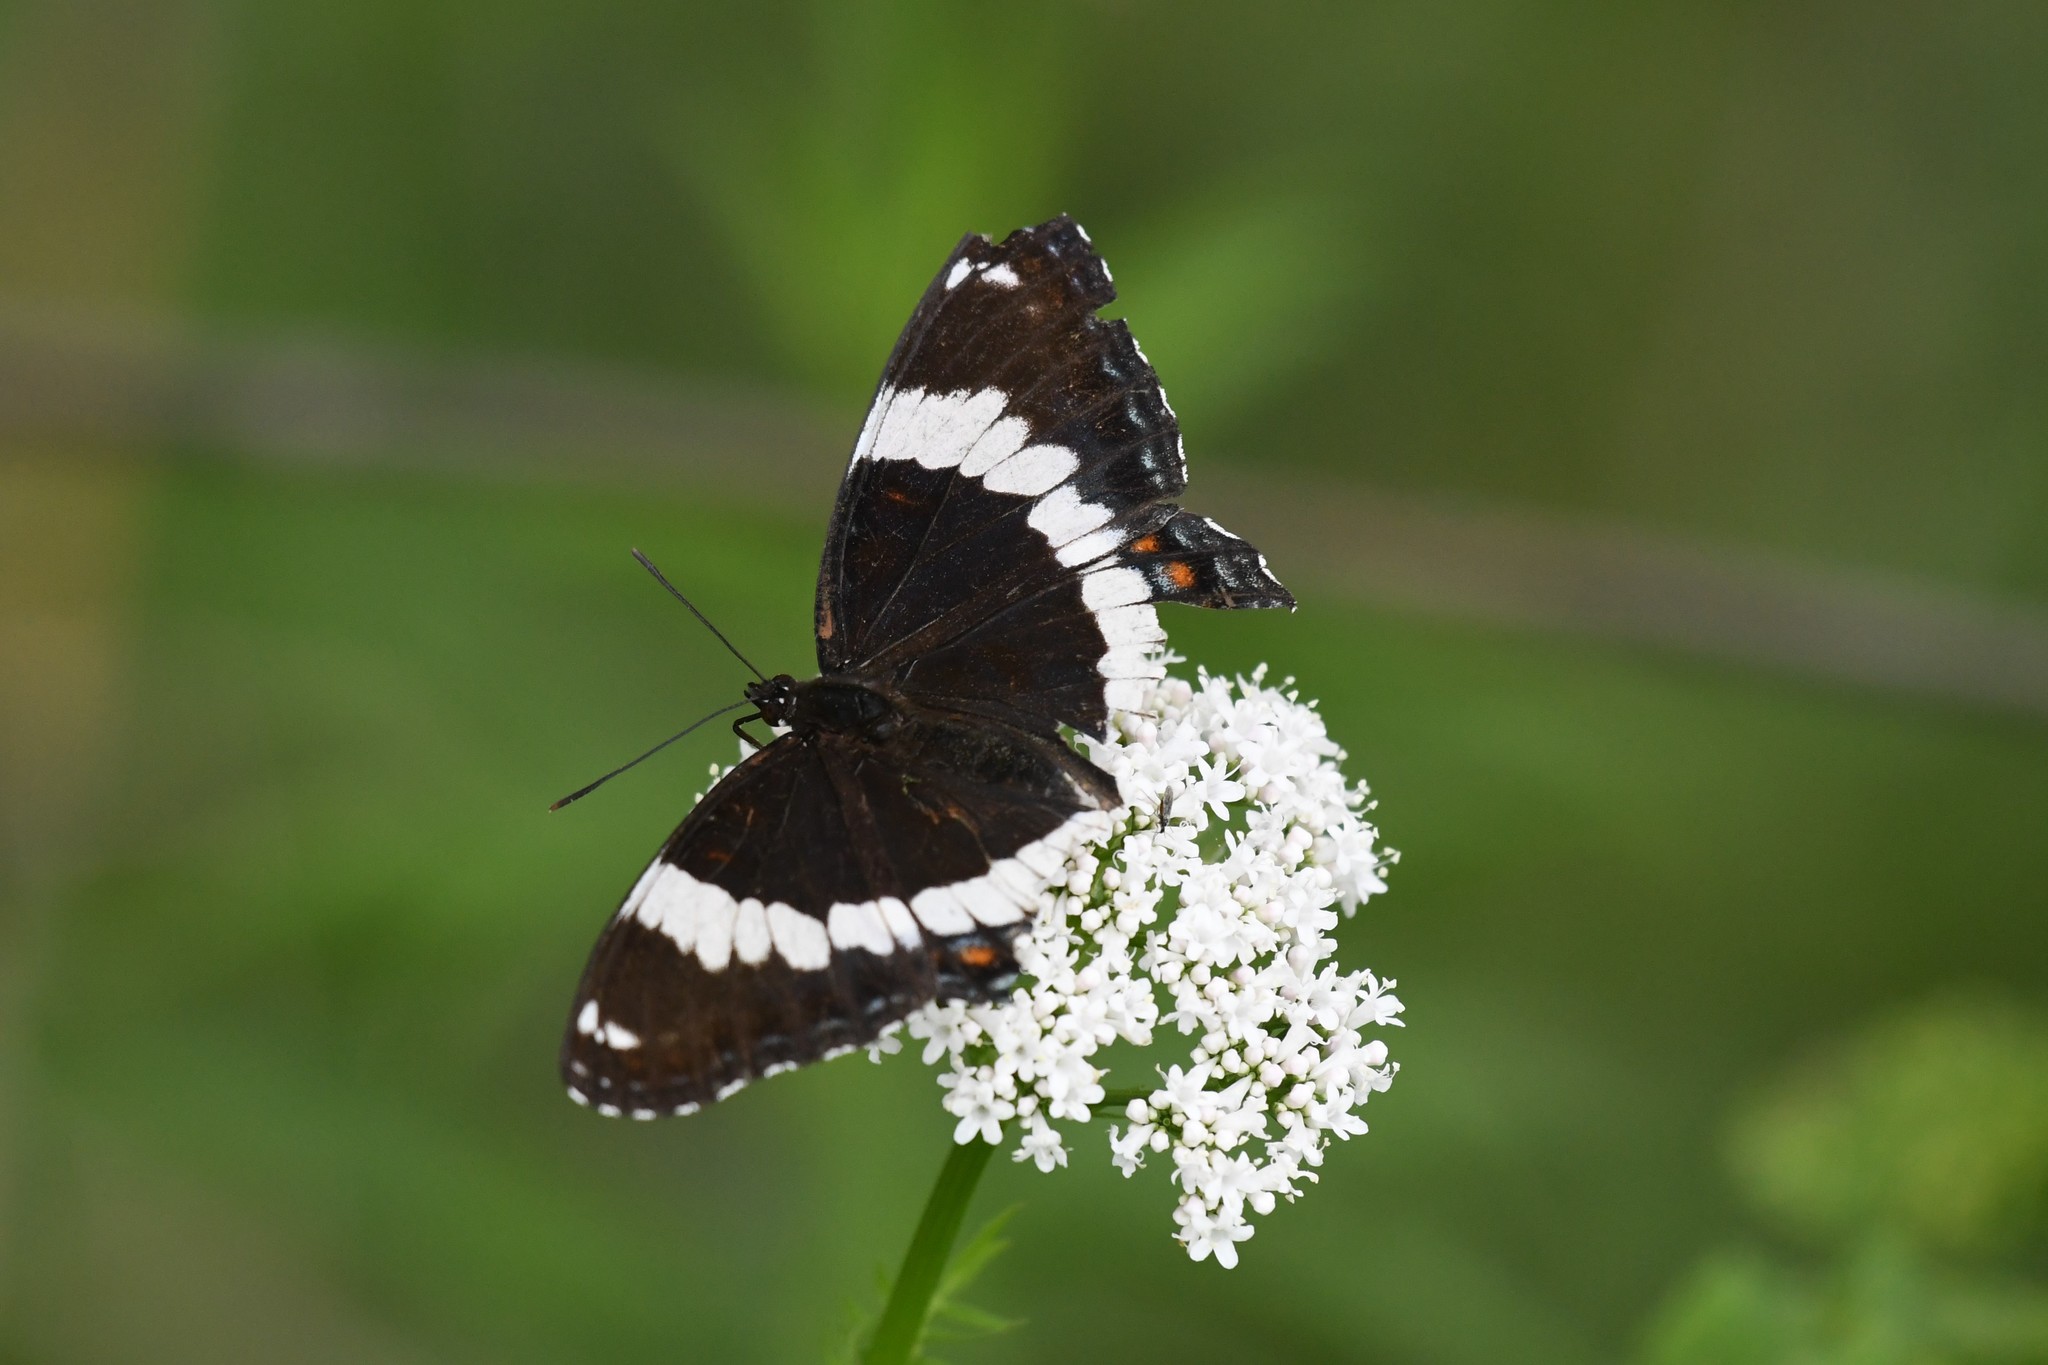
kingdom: Animalia
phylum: Arthropoda
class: Insecta
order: Lepidoptera
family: Nymphalidae
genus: Limenitis
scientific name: Limenitis arthemis
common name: Red-spotted admiral
